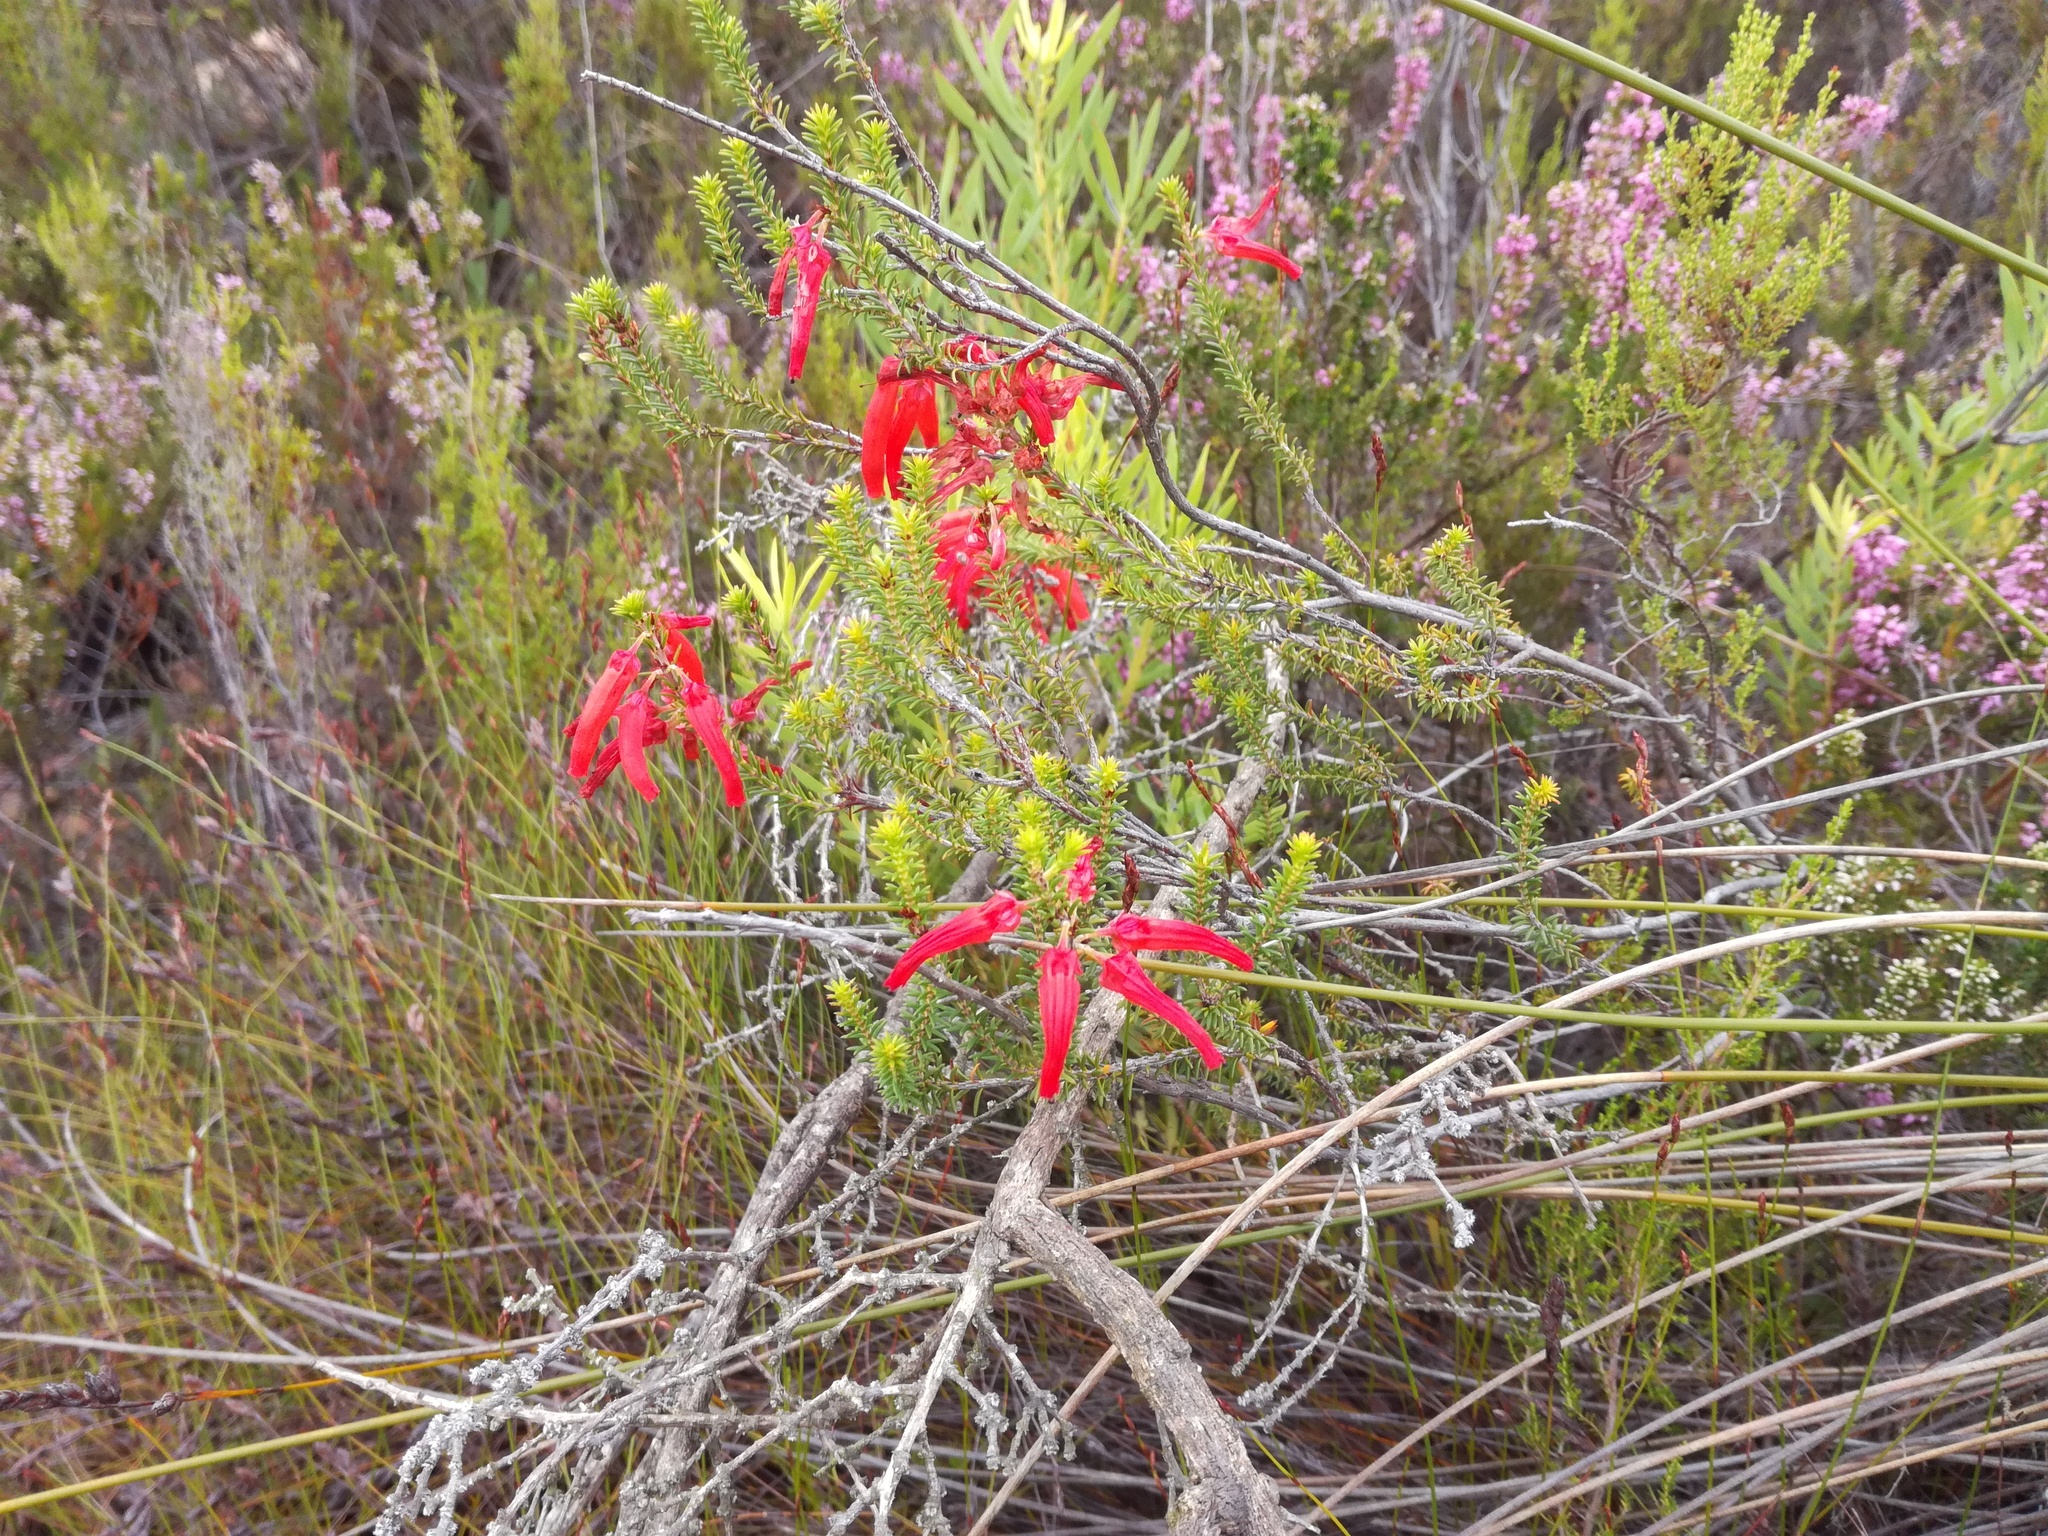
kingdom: Plantae
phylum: Tracheophyta
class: Magnoliopsida
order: Ericales
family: Ericaceae
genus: Erica
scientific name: Erica mammosa
